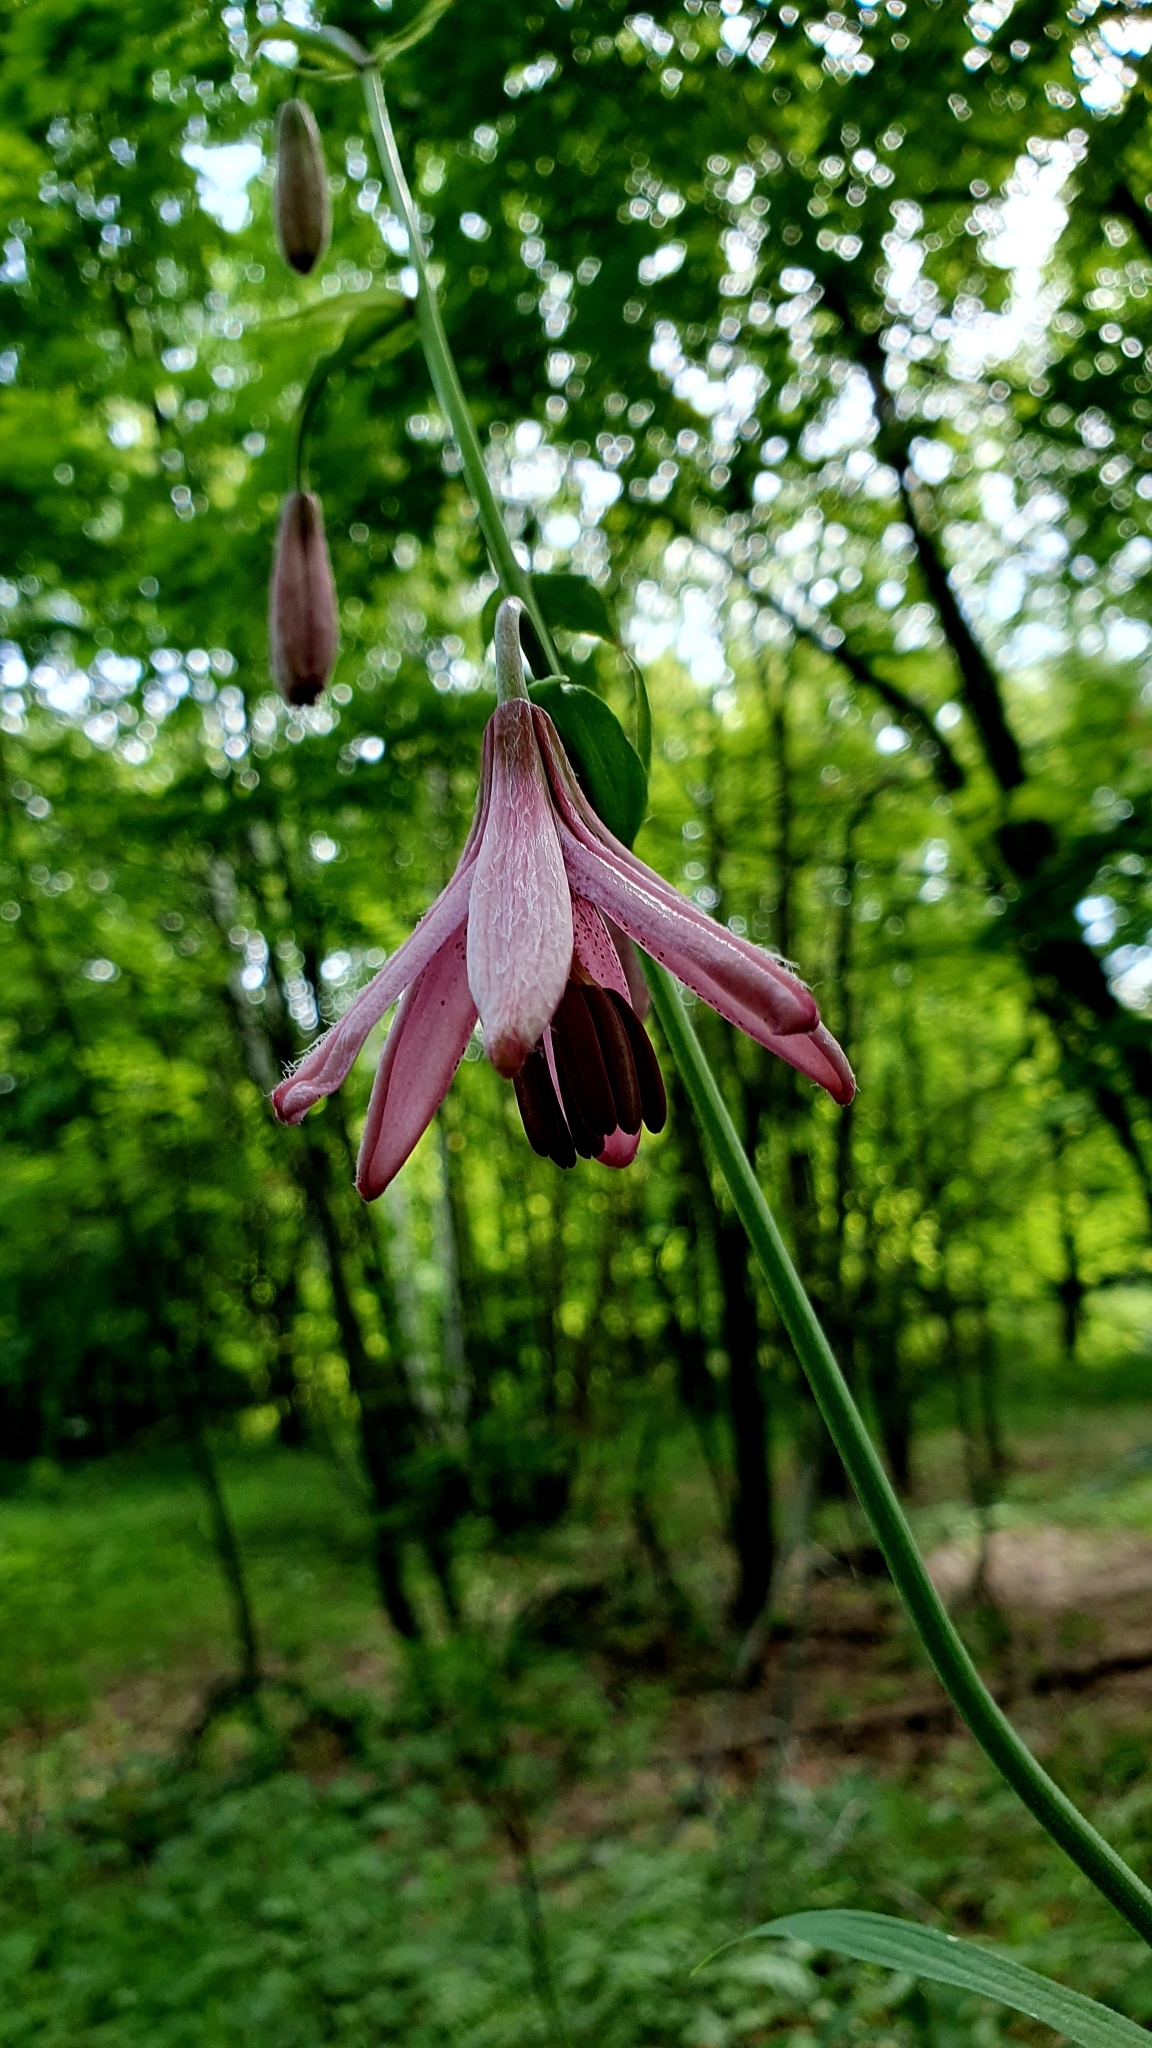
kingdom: Plantae
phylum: Tracheophyta
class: Liliopsida
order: Liliales
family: Liliaceae
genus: Lilium
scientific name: Lilium martagon
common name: Martagon lily
